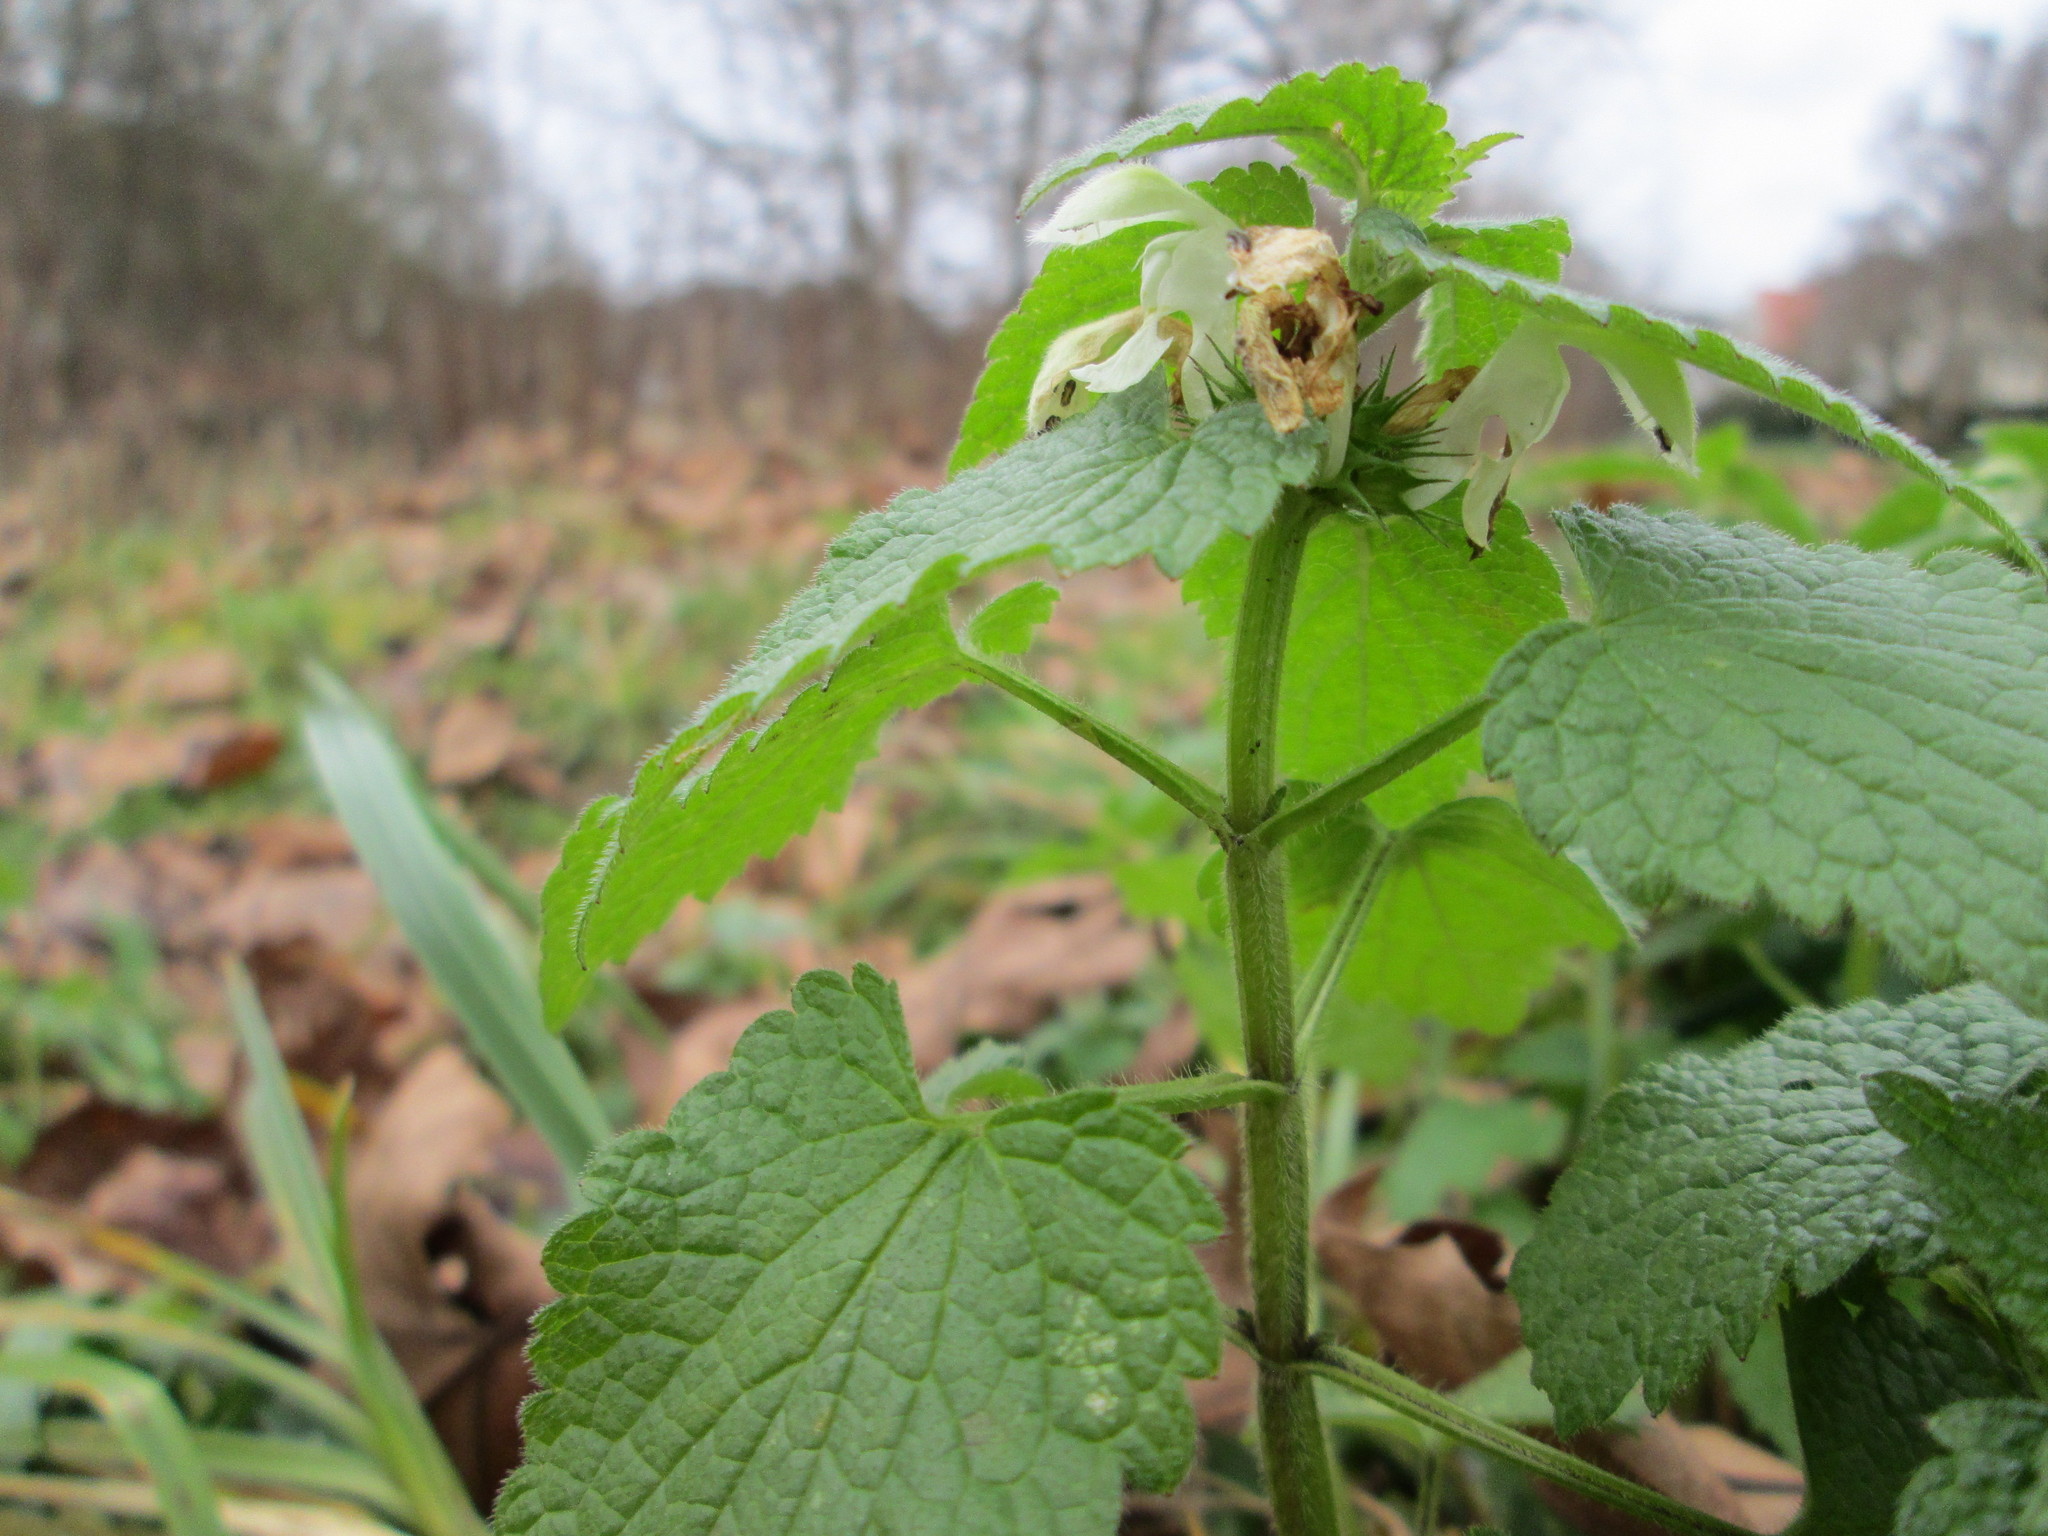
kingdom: Plantae
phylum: Tracheophyta
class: Magnoliopsida
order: Lamiales
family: Lamiaceae
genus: Lamium
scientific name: Lamium album
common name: White dead-nettle
